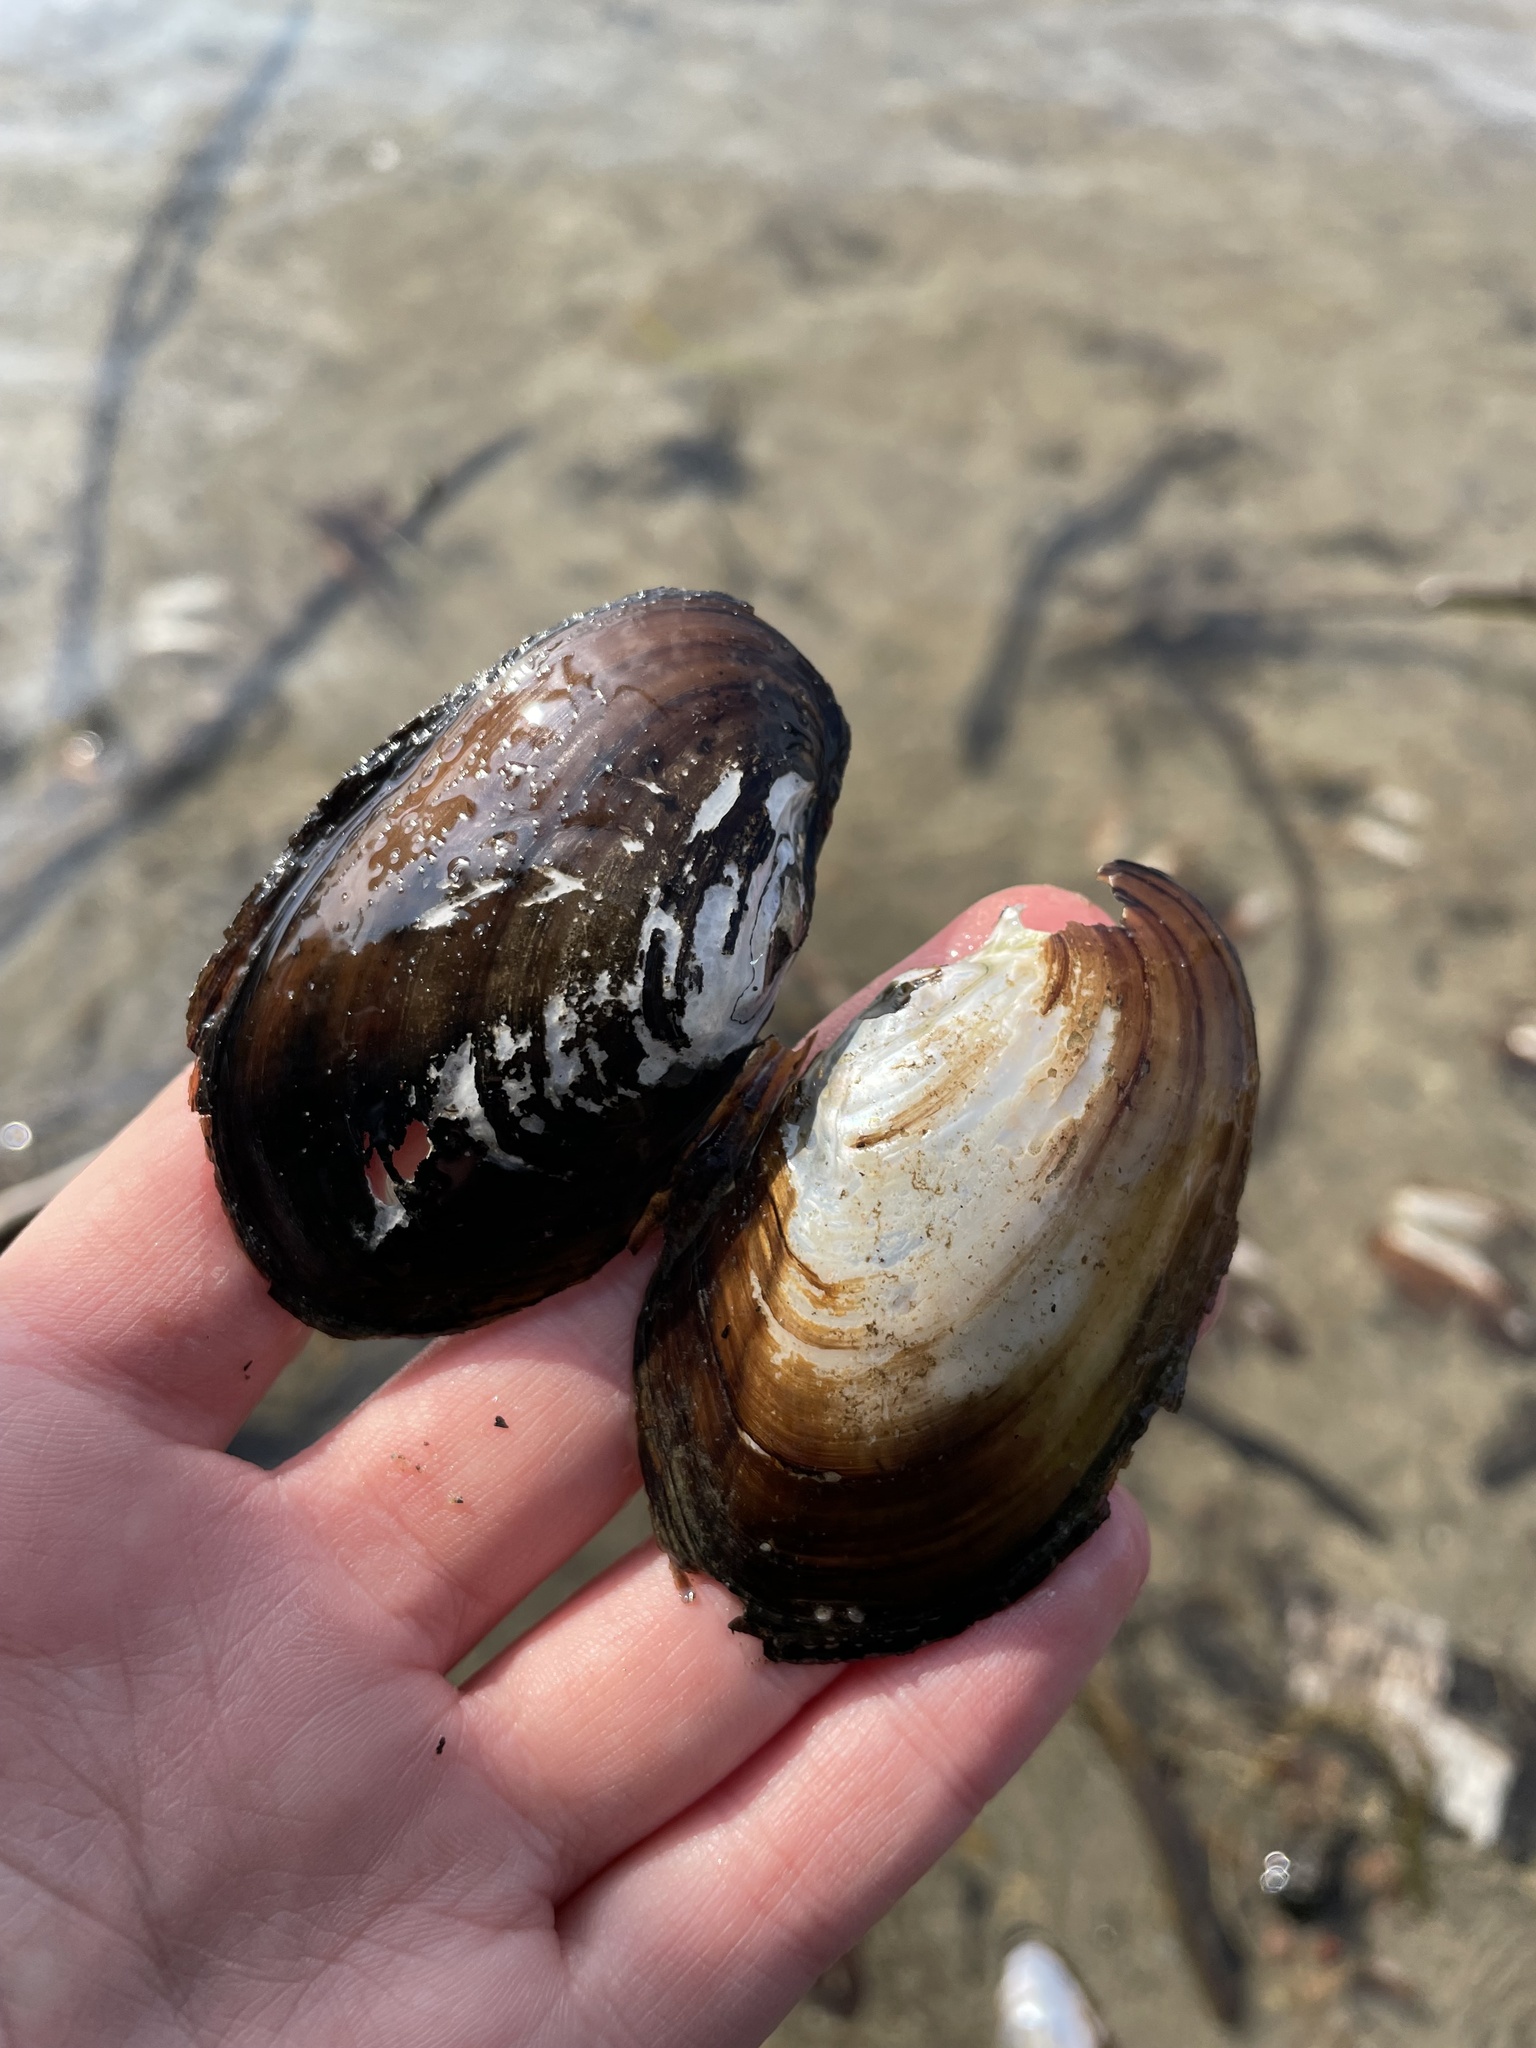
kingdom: Animalia
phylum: Mollusca
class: Bivalvia
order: Unionida
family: Unionidae
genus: Lampsilis
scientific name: Lampsilis siliquoidea
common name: Fatmucket
